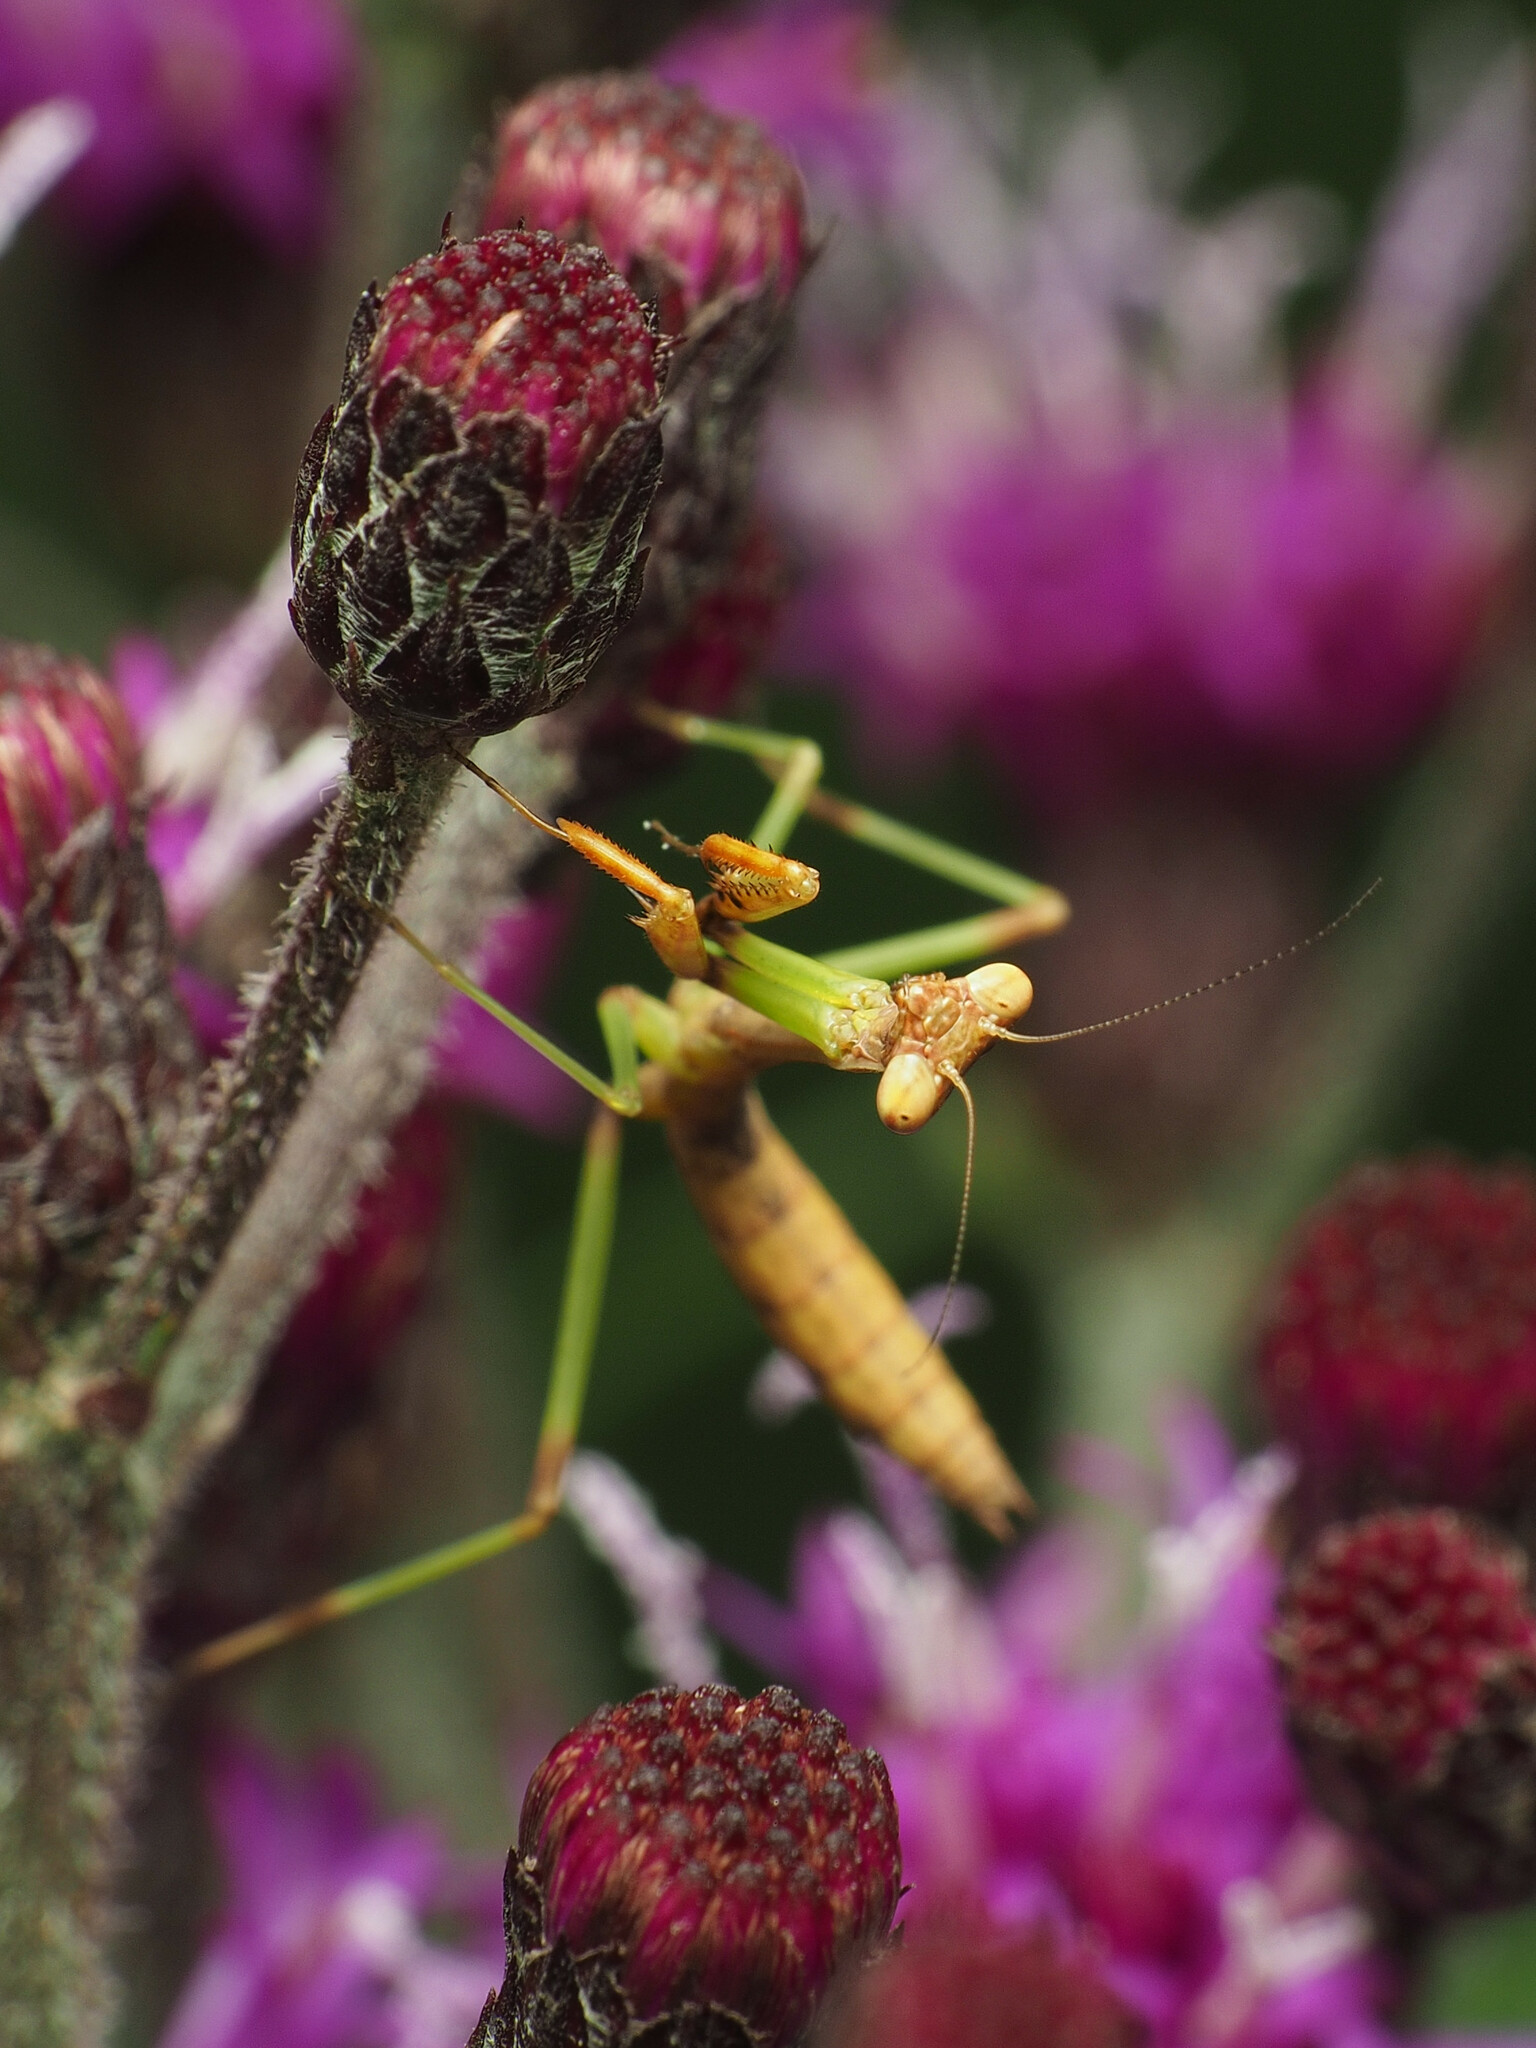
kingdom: Animalia
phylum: Arthropoda
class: Insecta
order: Mantodea
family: Mantidae
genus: Stagmomantis
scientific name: Stagmomantis carolina
